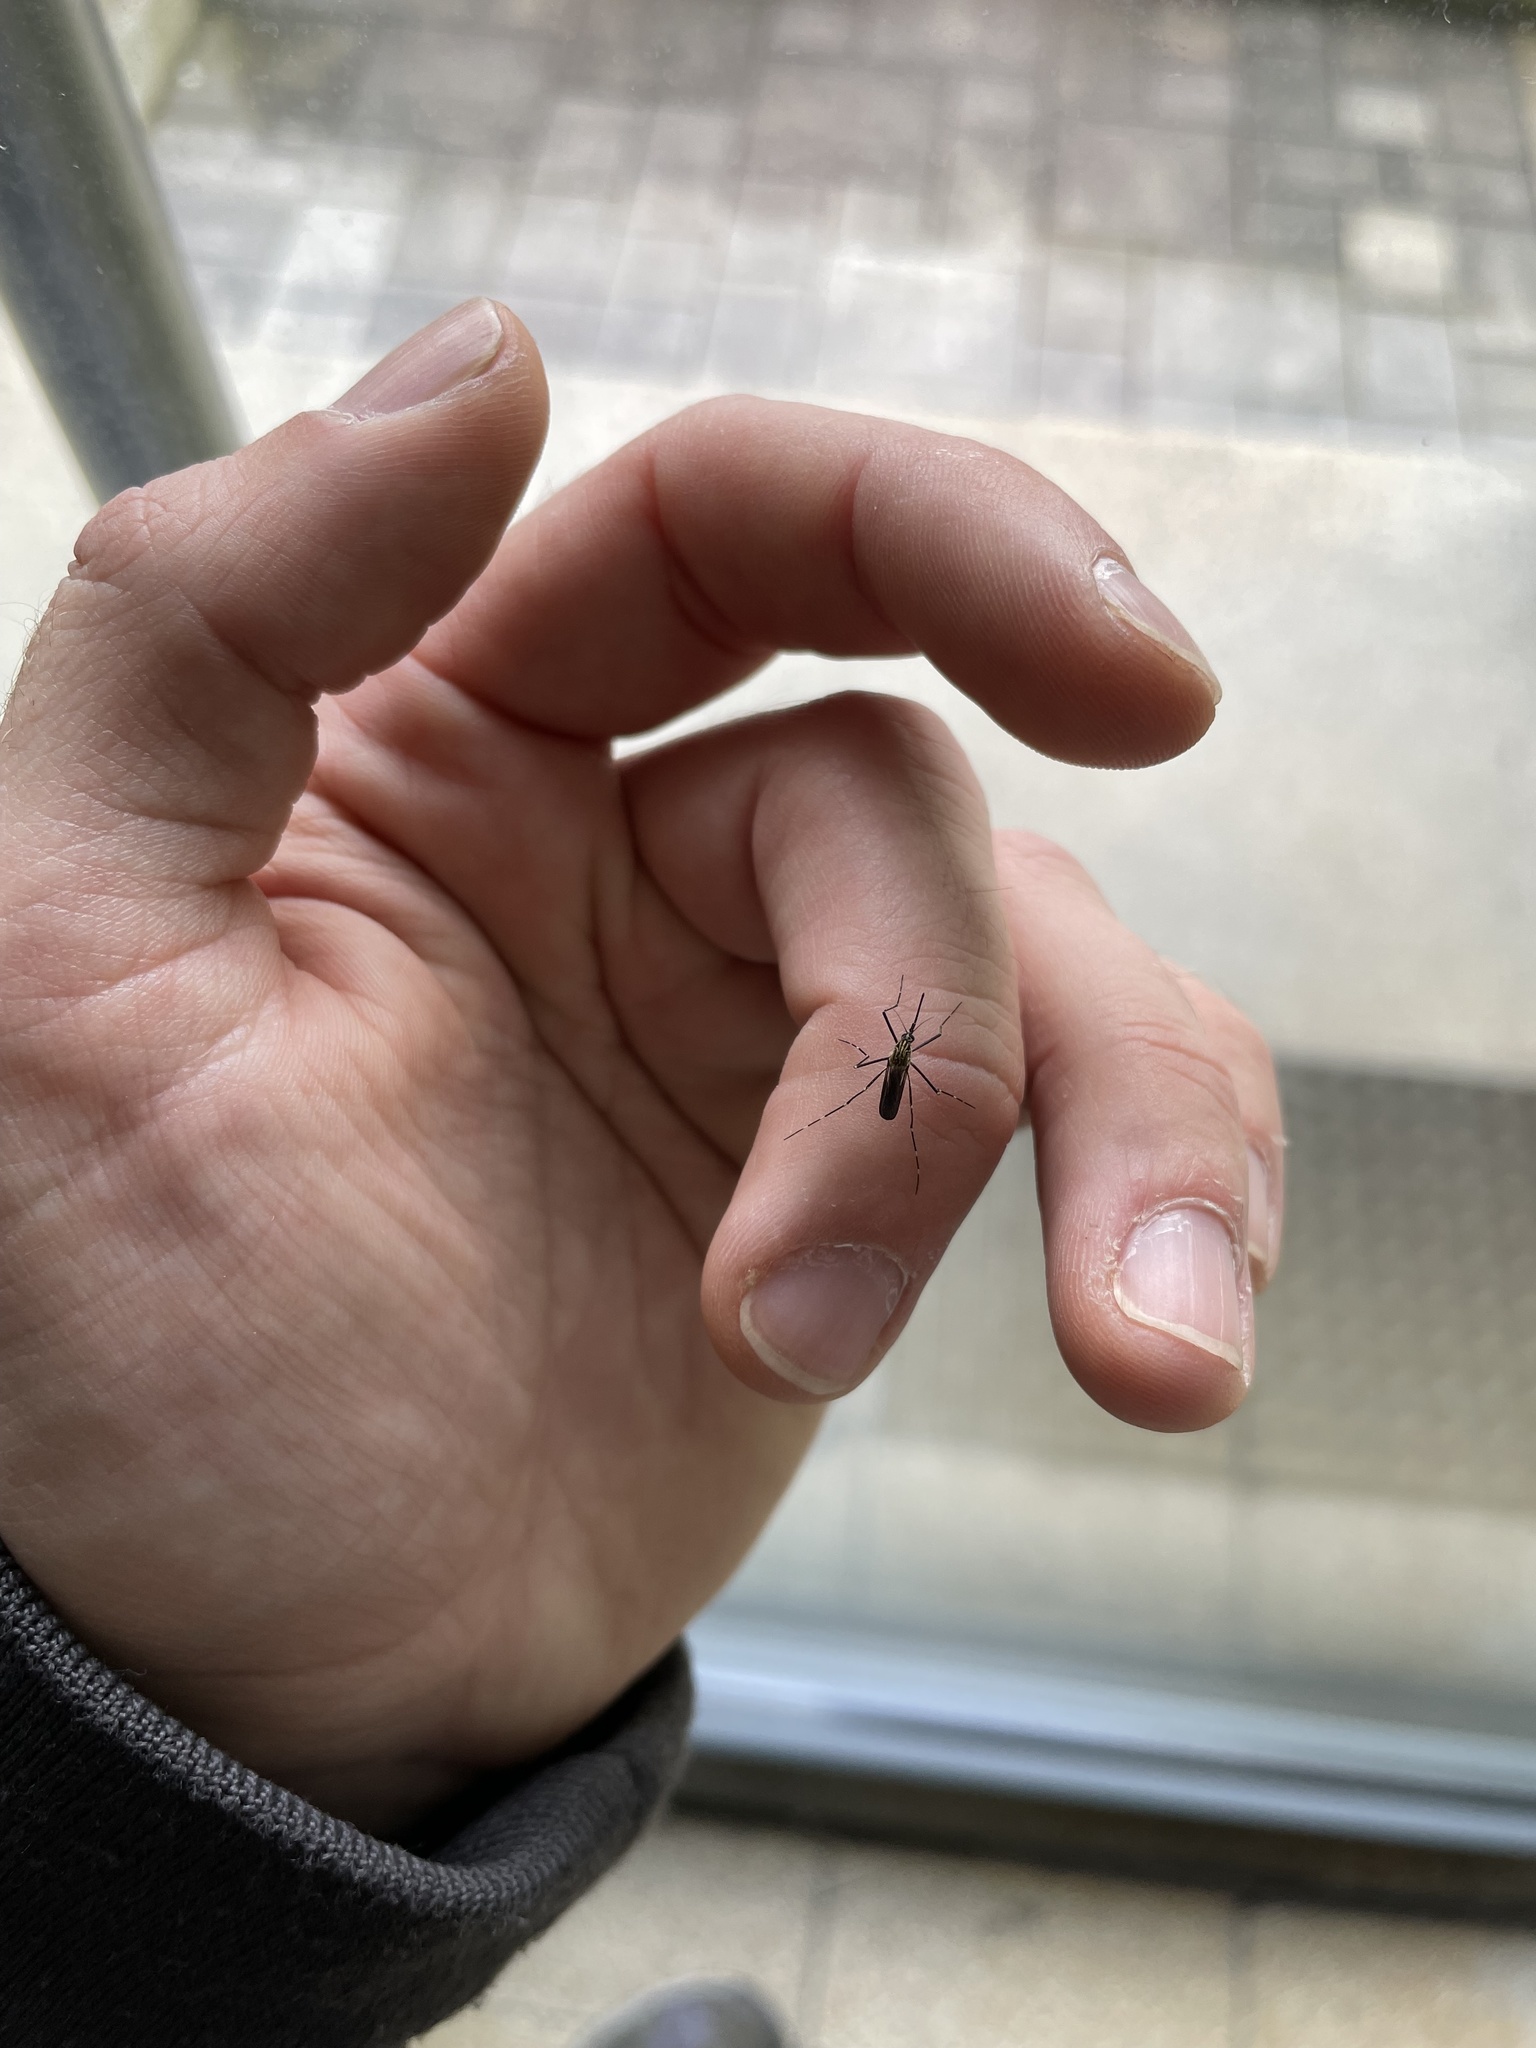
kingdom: Animalia
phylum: Arthropoda
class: Insecta
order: Diptera
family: Culicidae
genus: Aedes
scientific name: Aedes japonicus
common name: Asian bush mosquito
